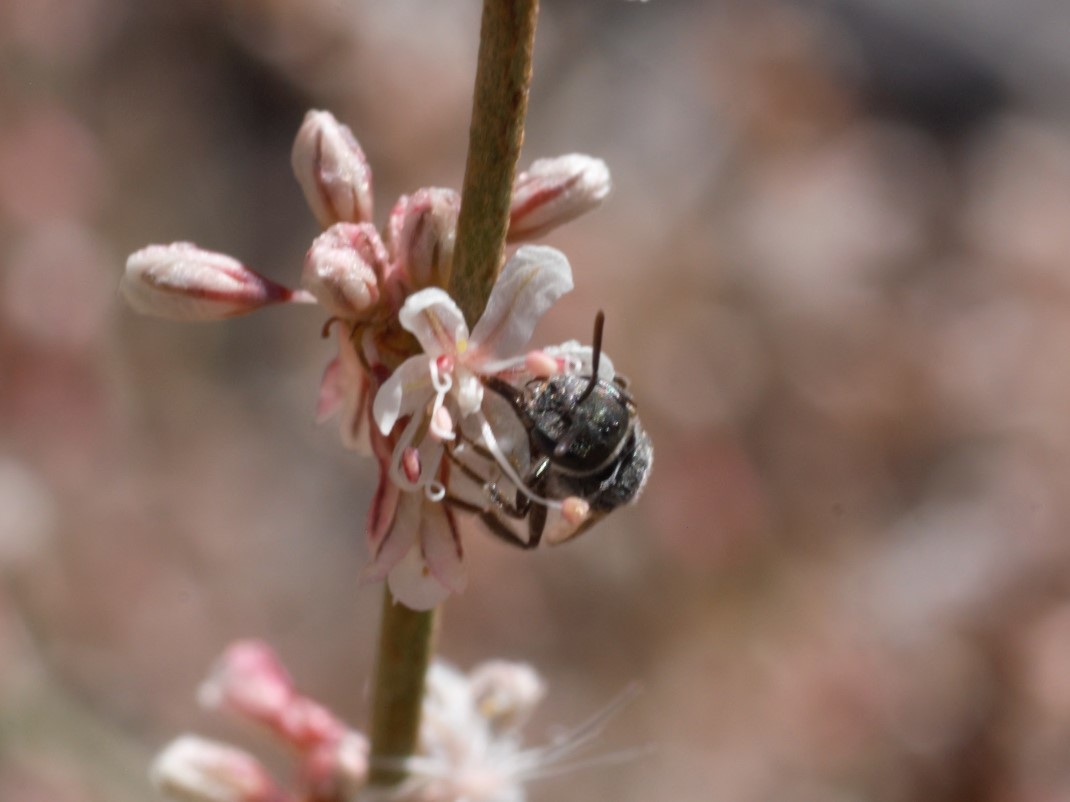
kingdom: Animalia
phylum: Arthropoda
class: Insecta
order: Hymenoptera
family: Halictidae
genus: Halictus
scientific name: Halictus tripartitus
